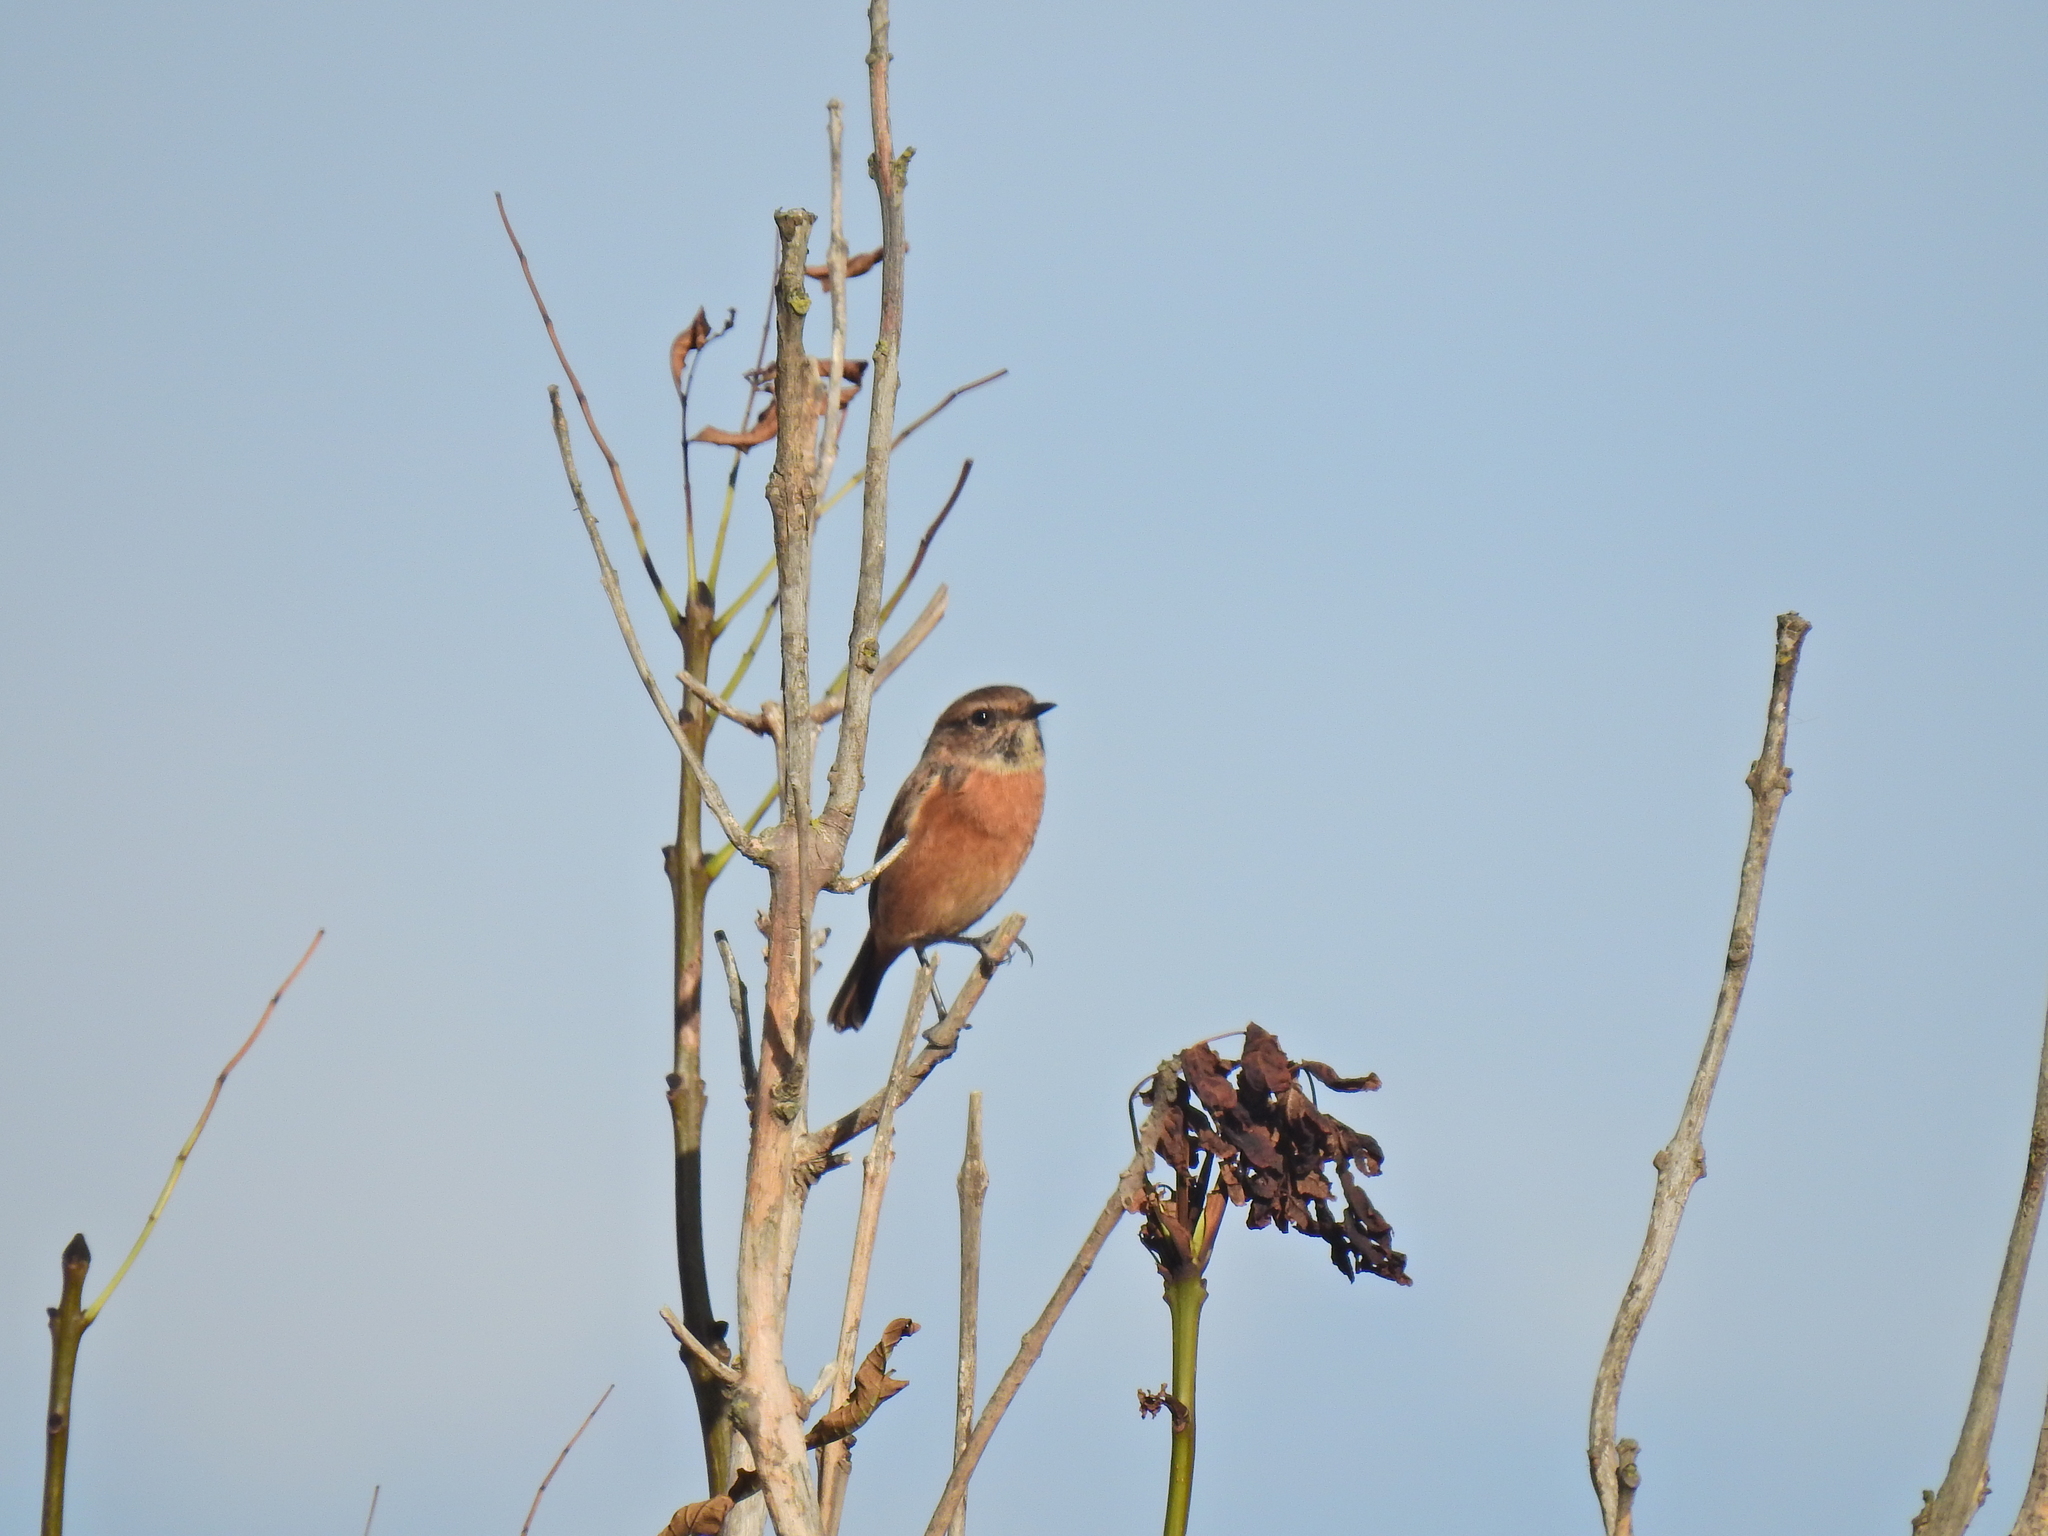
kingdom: Animalia
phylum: Chordata
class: Aves
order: Passeriformes
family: Muscicapidae
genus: Saxicola
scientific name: Saxicola rubicola
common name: European stonechat
